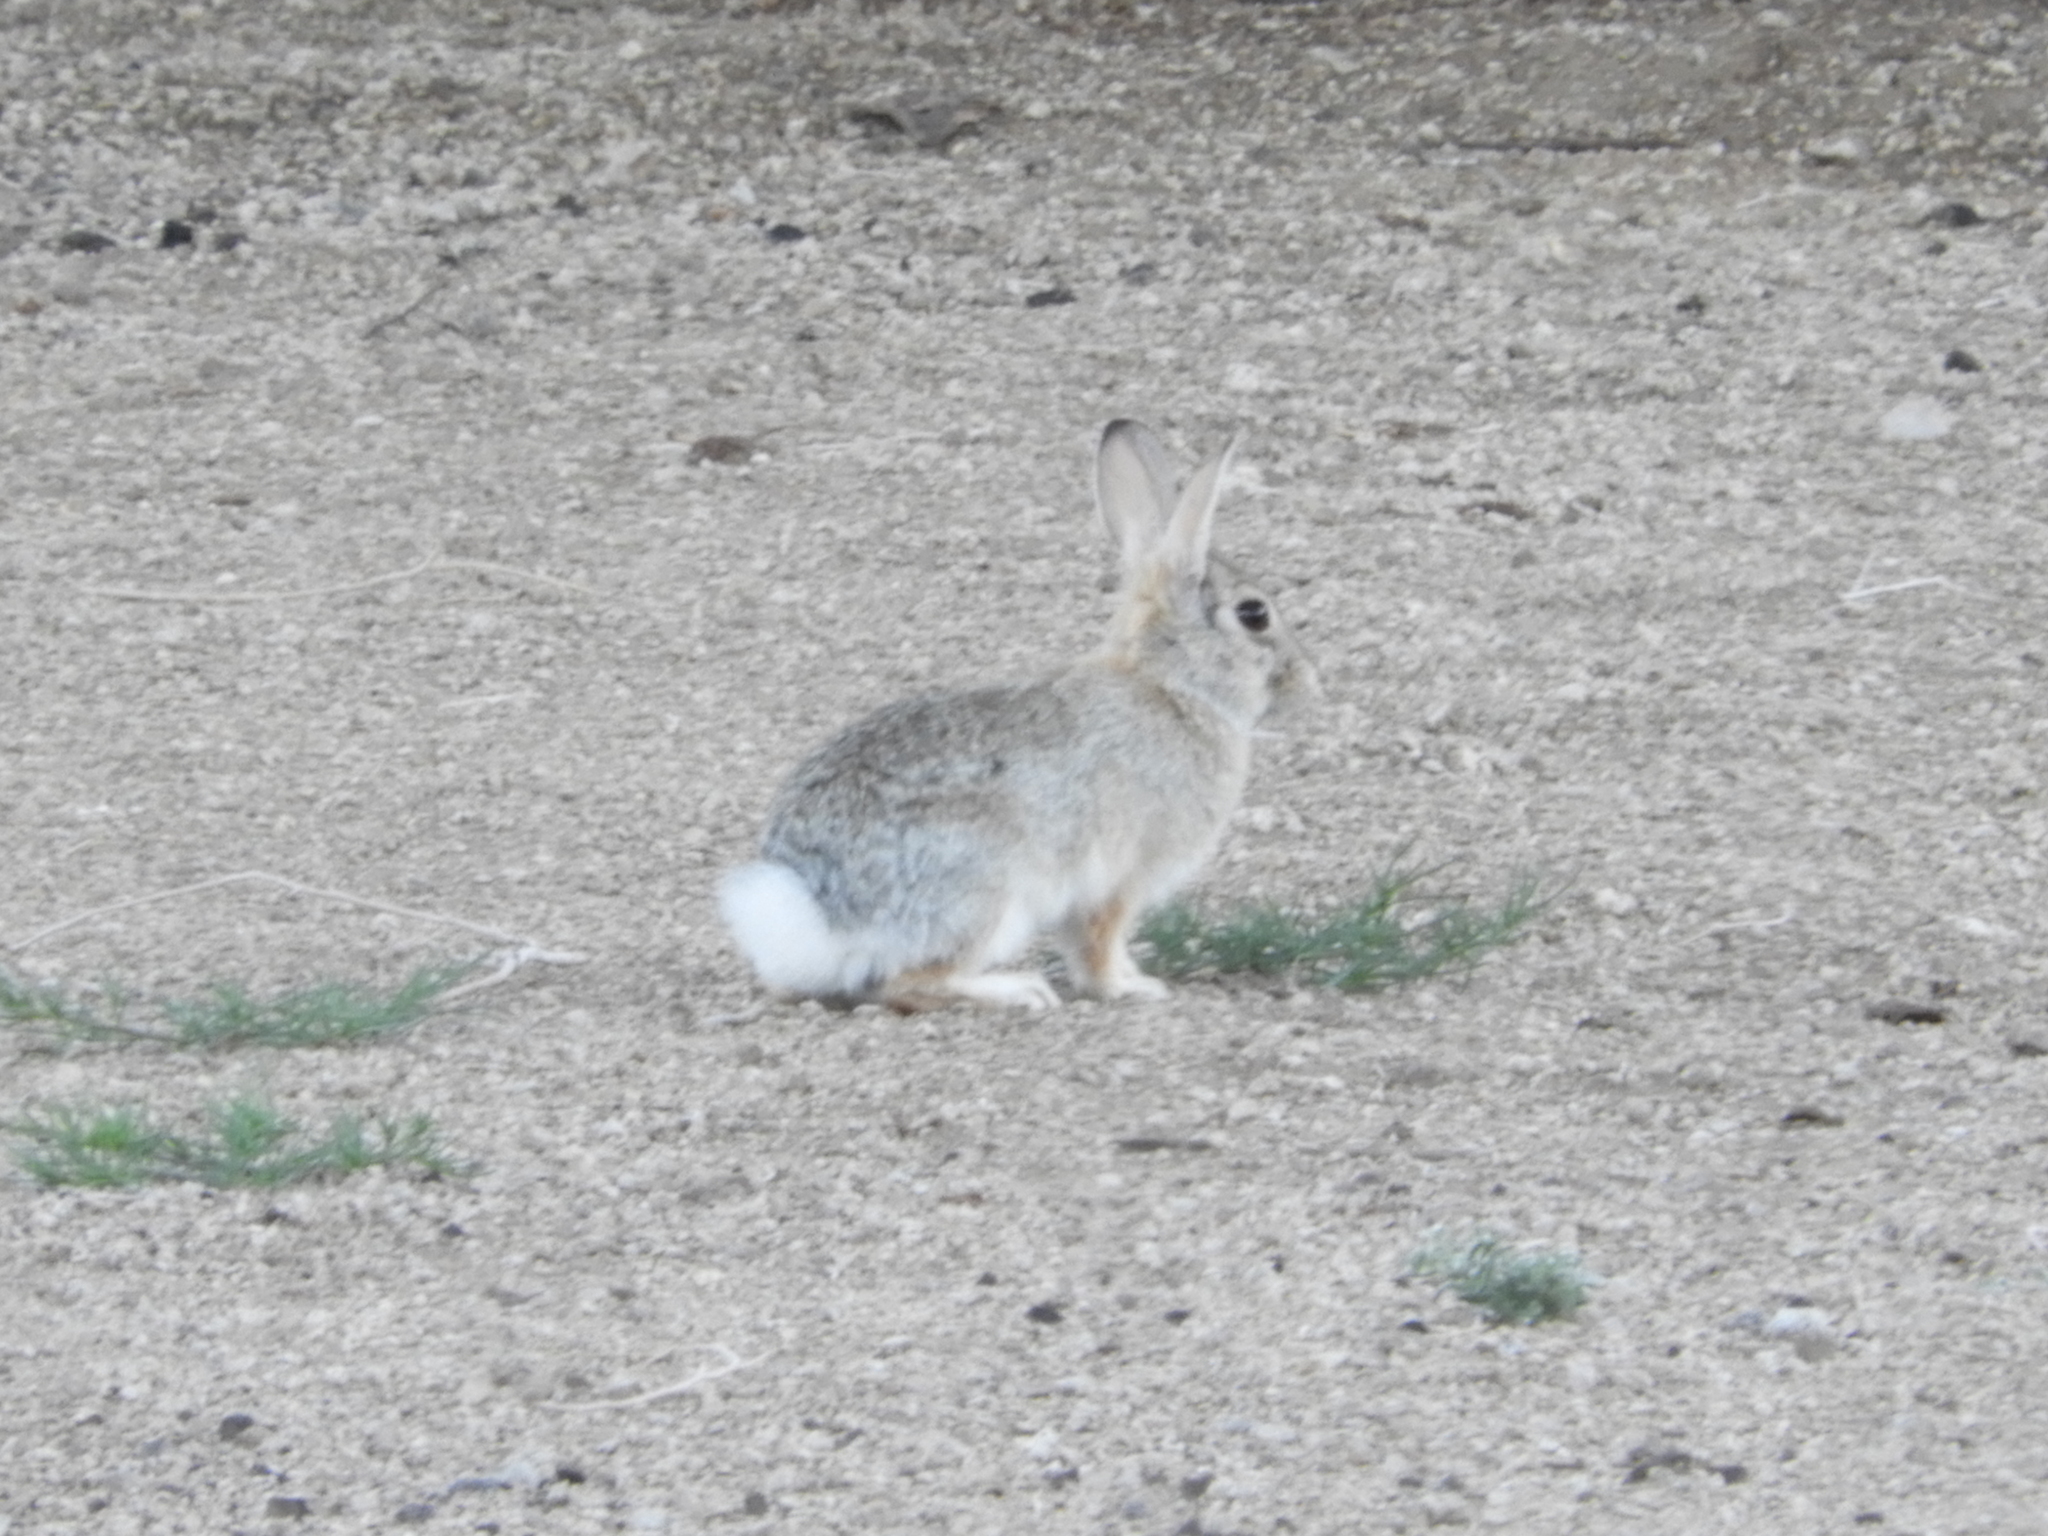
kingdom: Animalia
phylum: Chordata
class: Mammalia
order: Lagomorpha
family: Leporidae
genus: Sylvilagus
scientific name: Sylvilagus audubonii
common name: Desert cottontail
